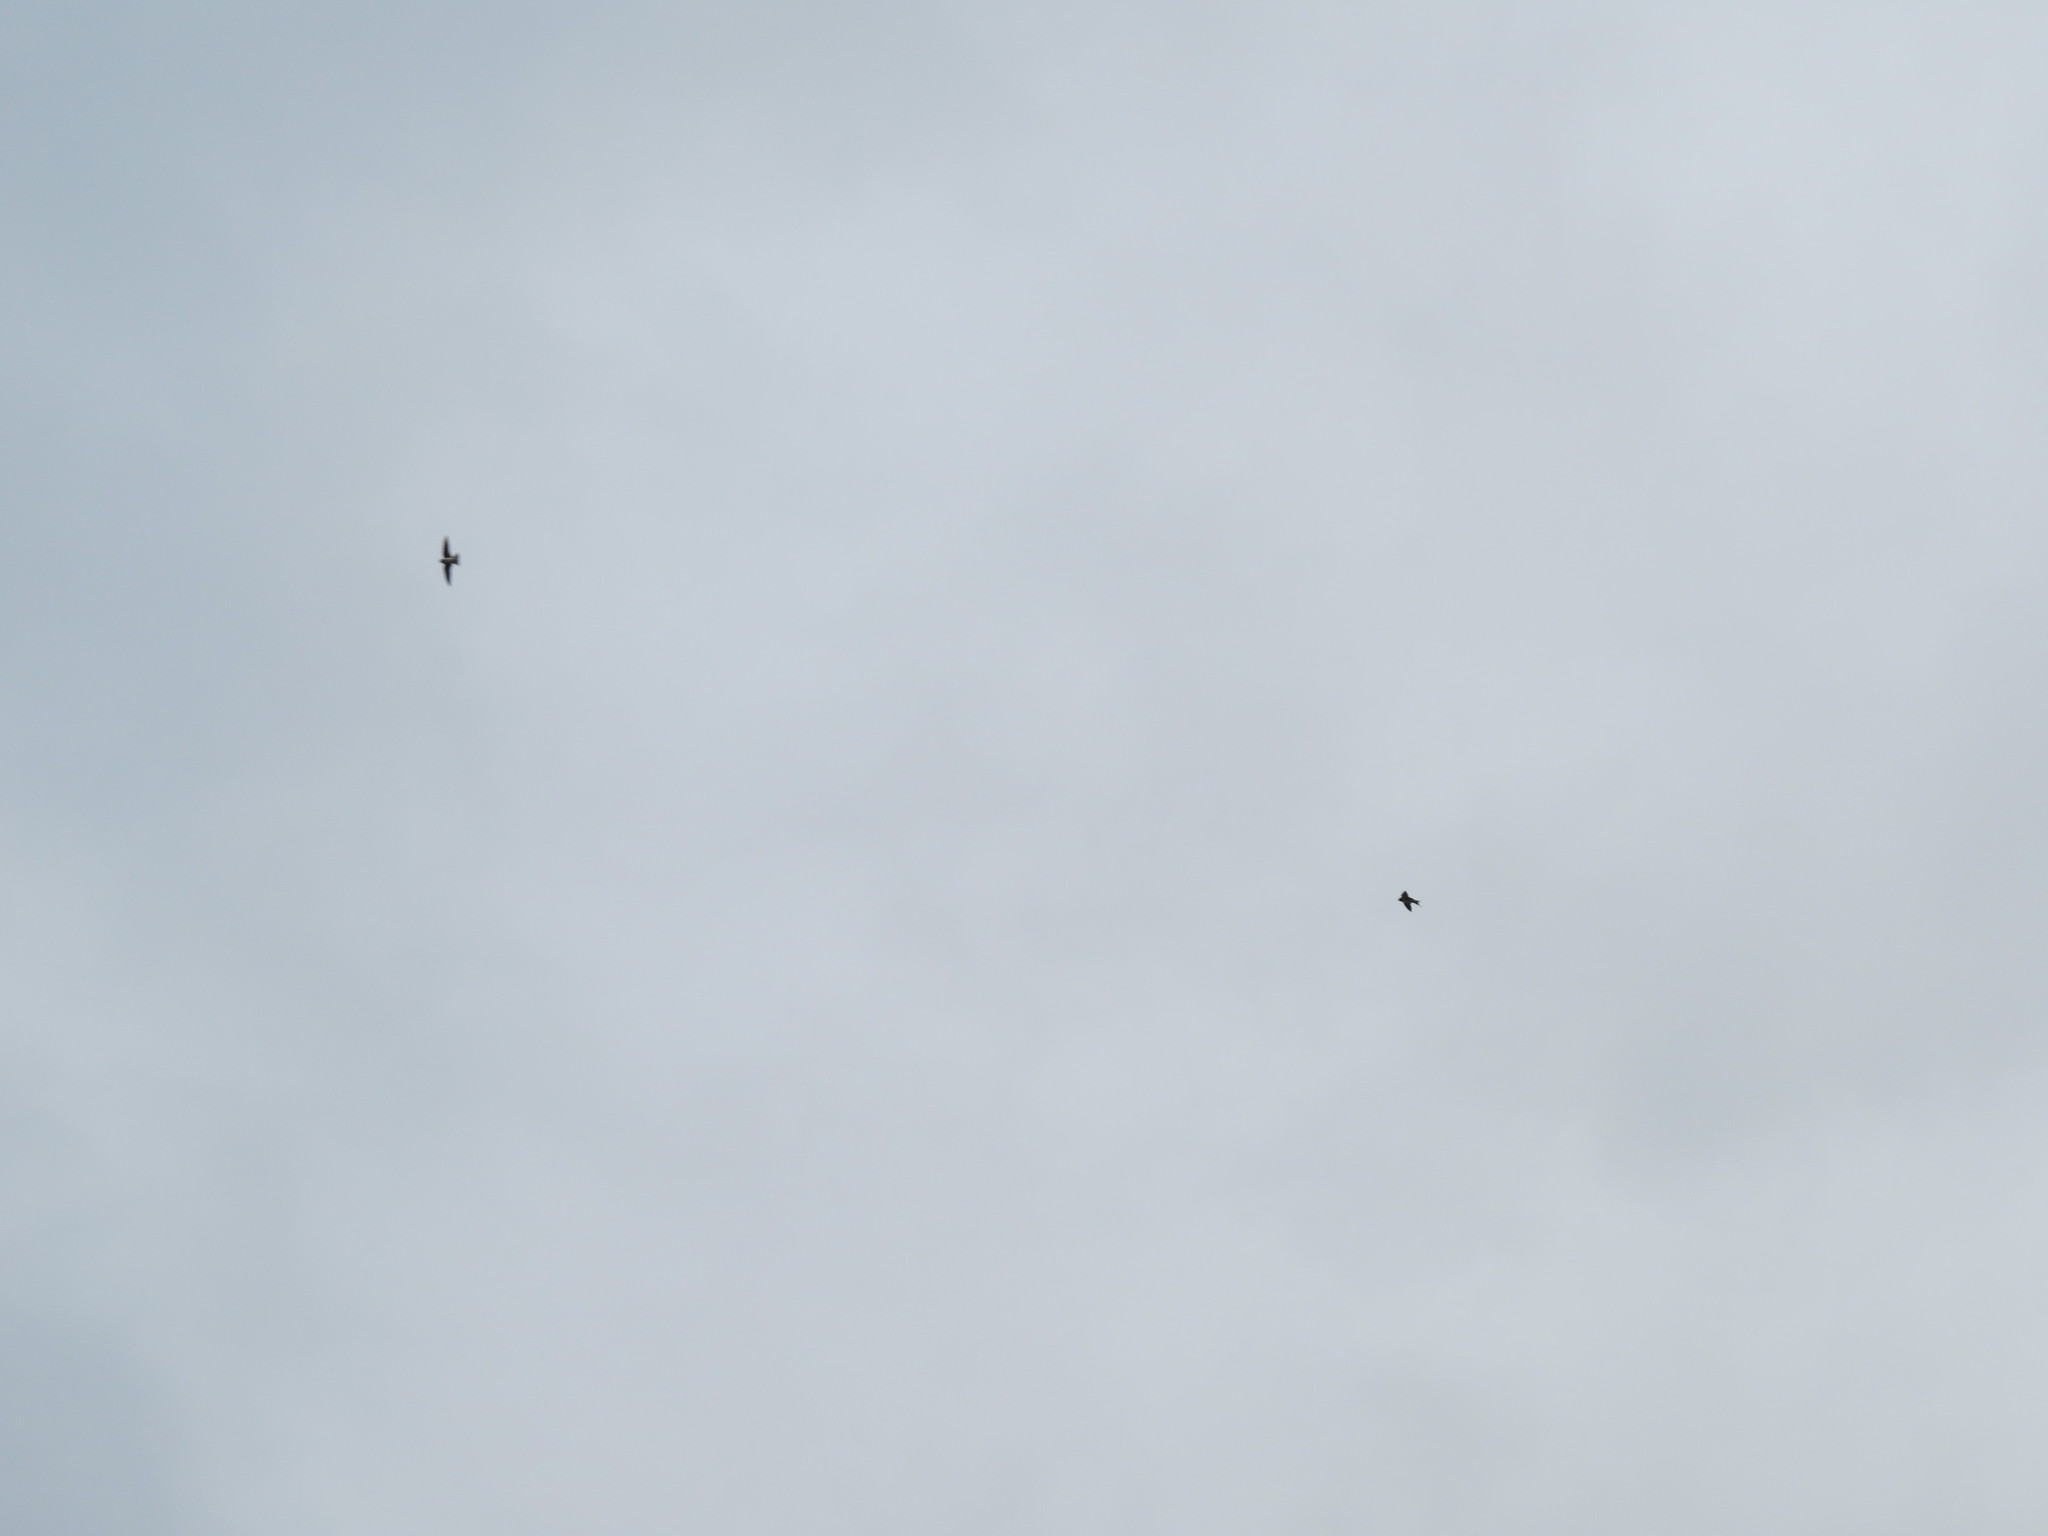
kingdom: Animalia
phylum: Chordata
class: Aves
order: Passeriformes
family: Hirundinidae
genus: Hirundo
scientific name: Hirundo rustica
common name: Barn swallow
